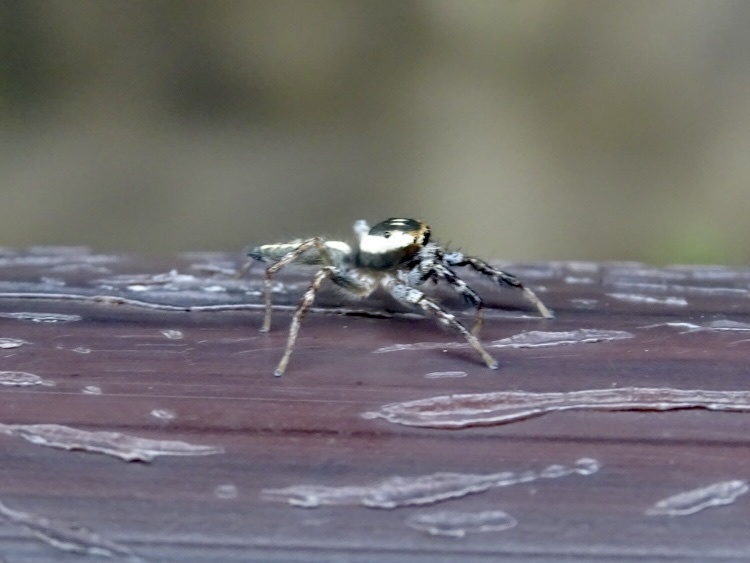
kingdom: Animalia
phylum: Arthropoda
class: Arachnida
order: Araneae
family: Salticidae
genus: Telamonia
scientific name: Telamonia caprina
